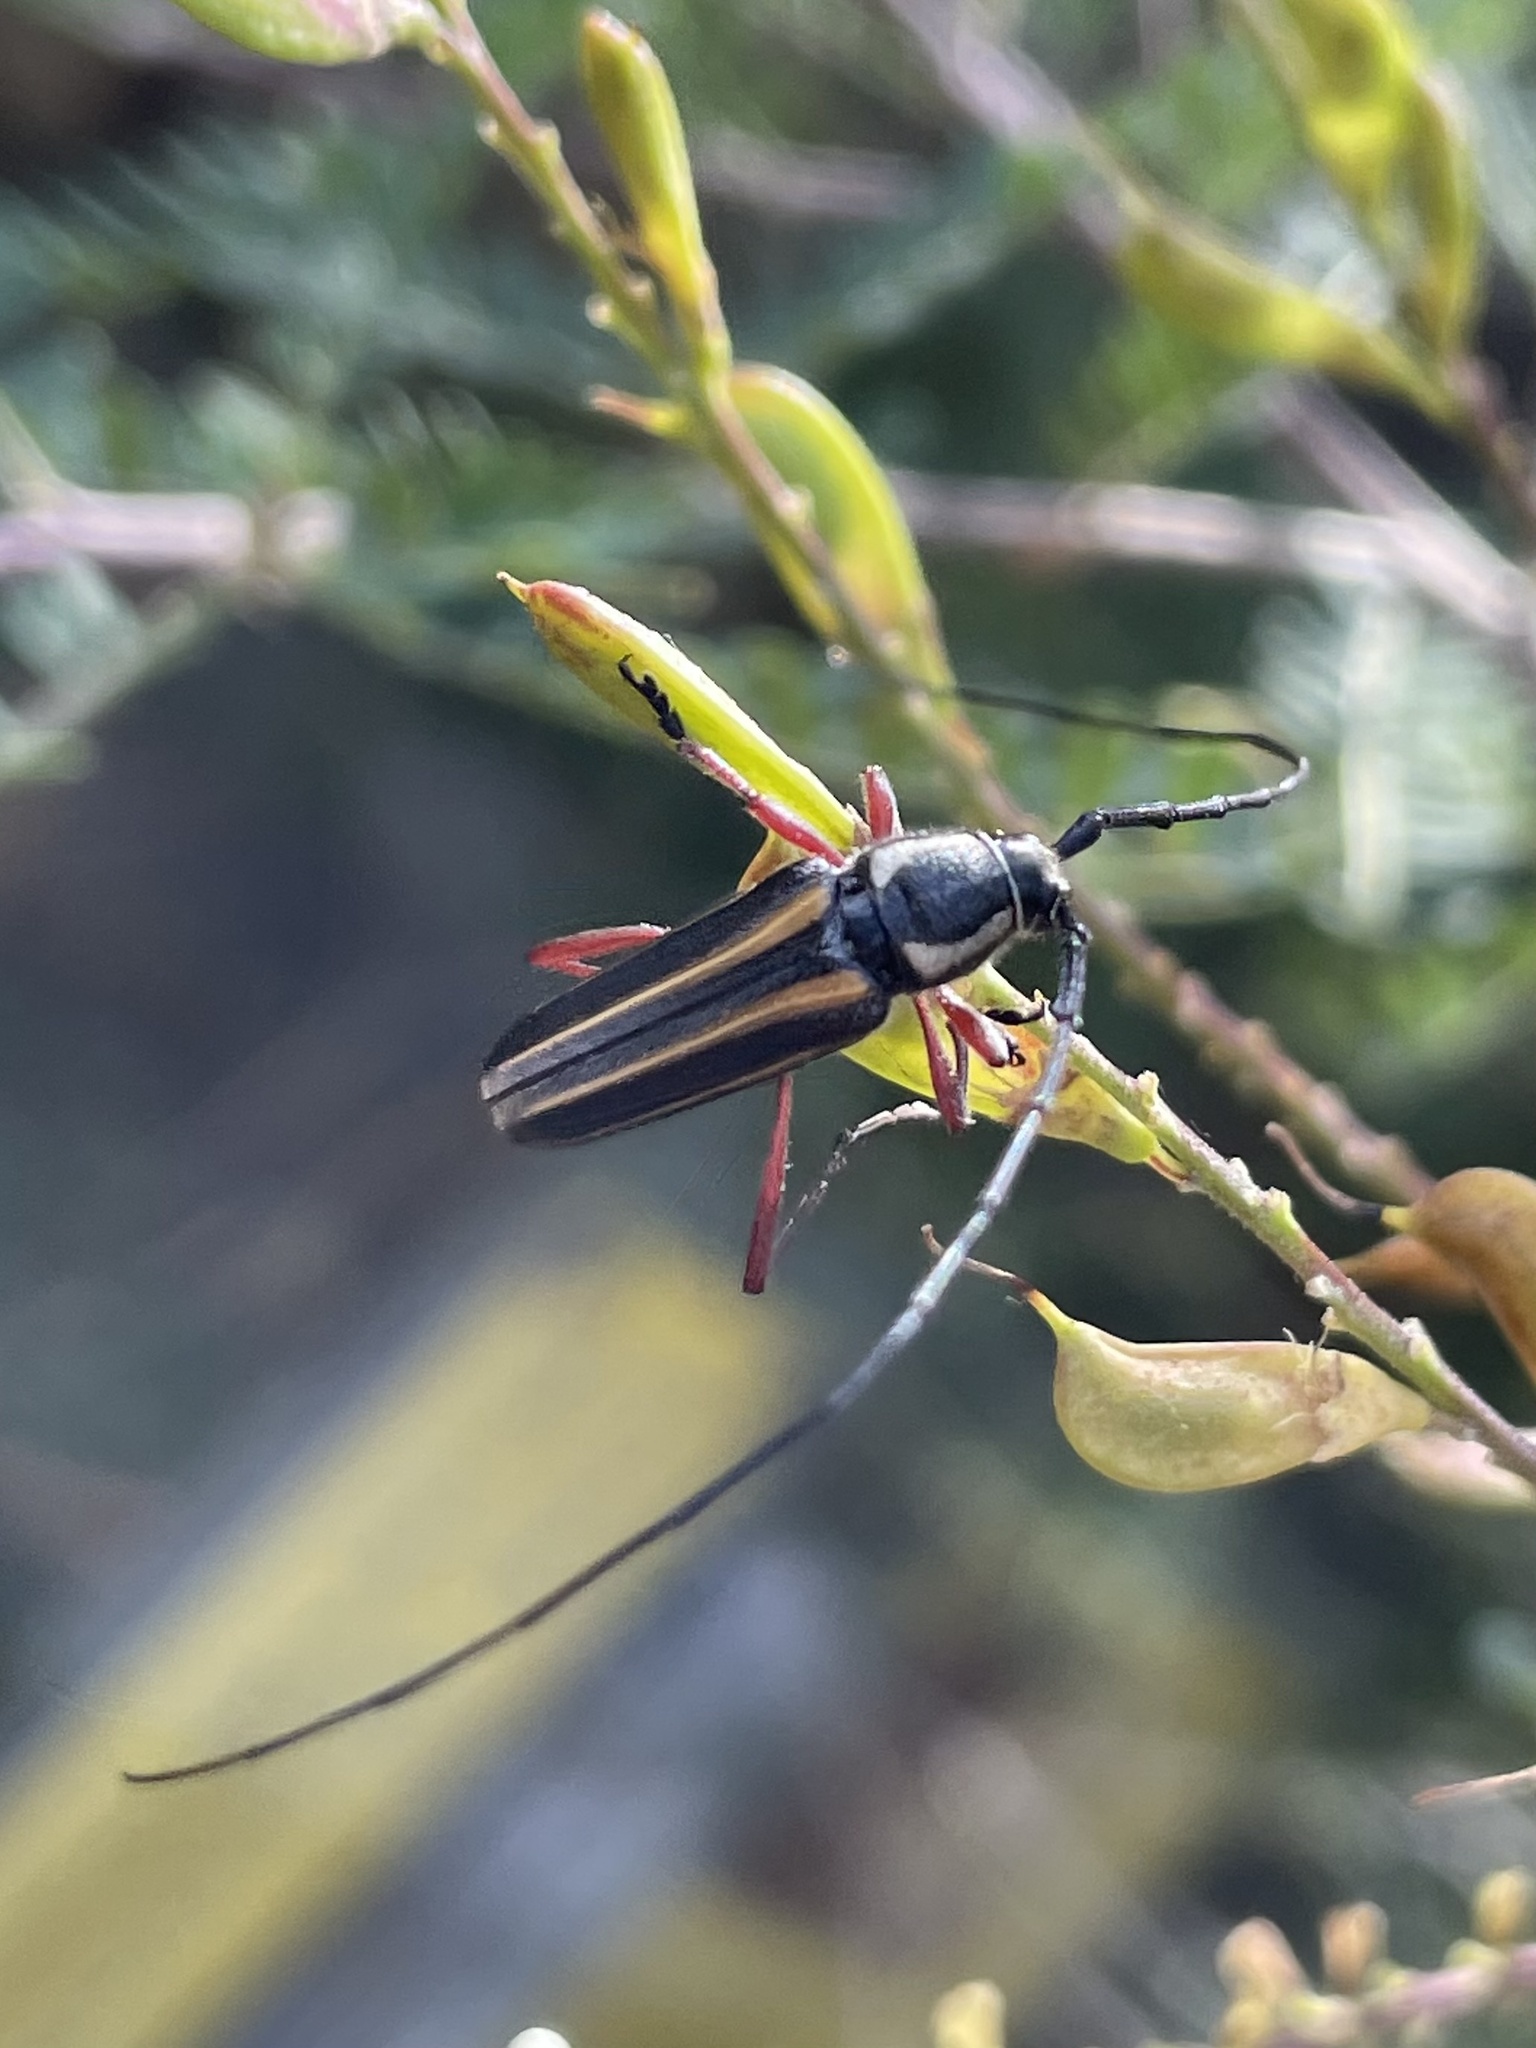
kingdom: Animalia
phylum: Arthropoda
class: Insecta
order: Coleoptera
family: Cerambycidae
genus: Sphaenothecus
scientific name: Sphaenothecus bilineatus
